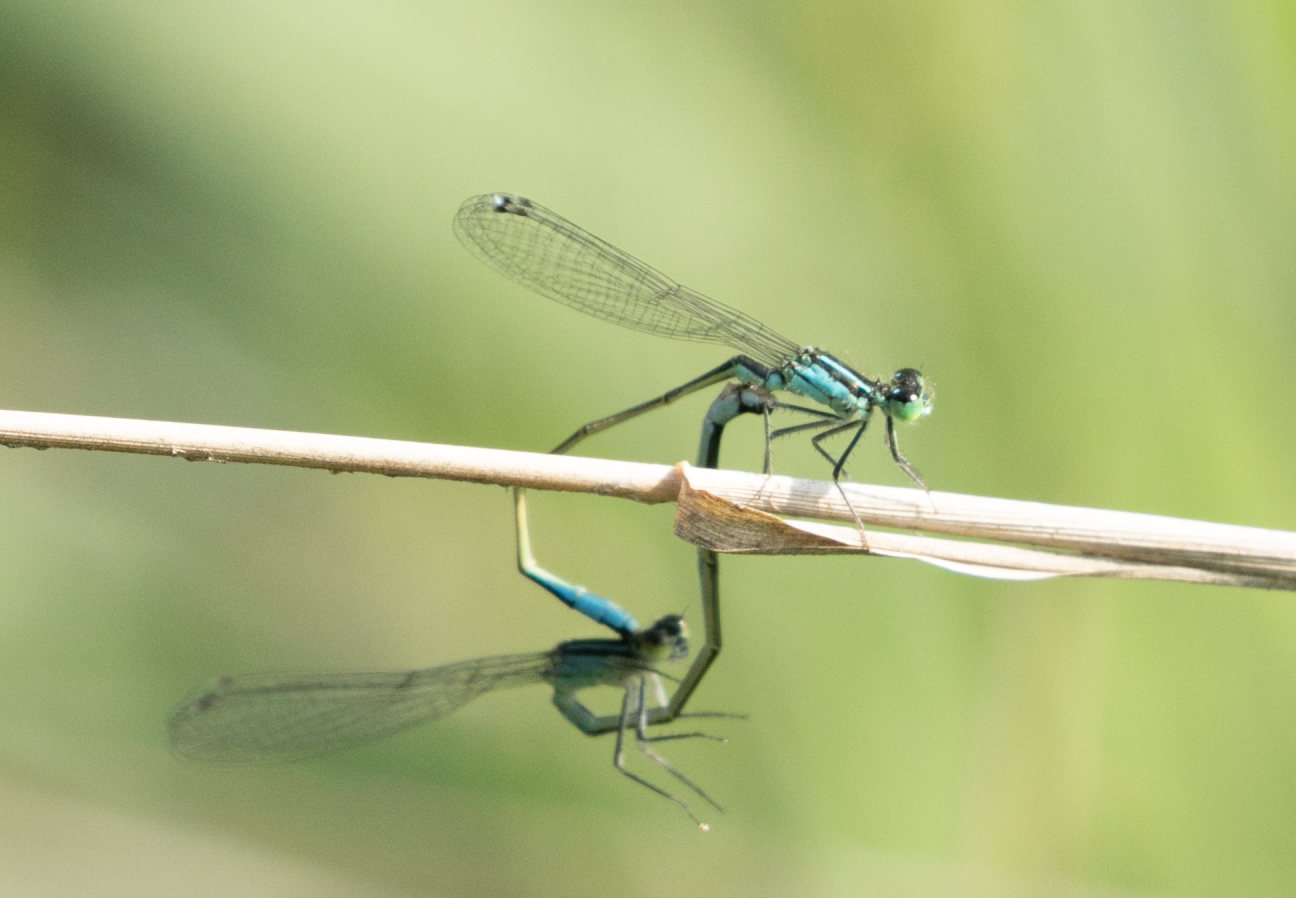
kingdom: Animalia
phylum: Arthropoda
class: Insecta
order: Odonata
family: Coenagrionidae
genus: Ischnura
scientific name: Ischnura elegans
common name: Blue-tailed damselfly
